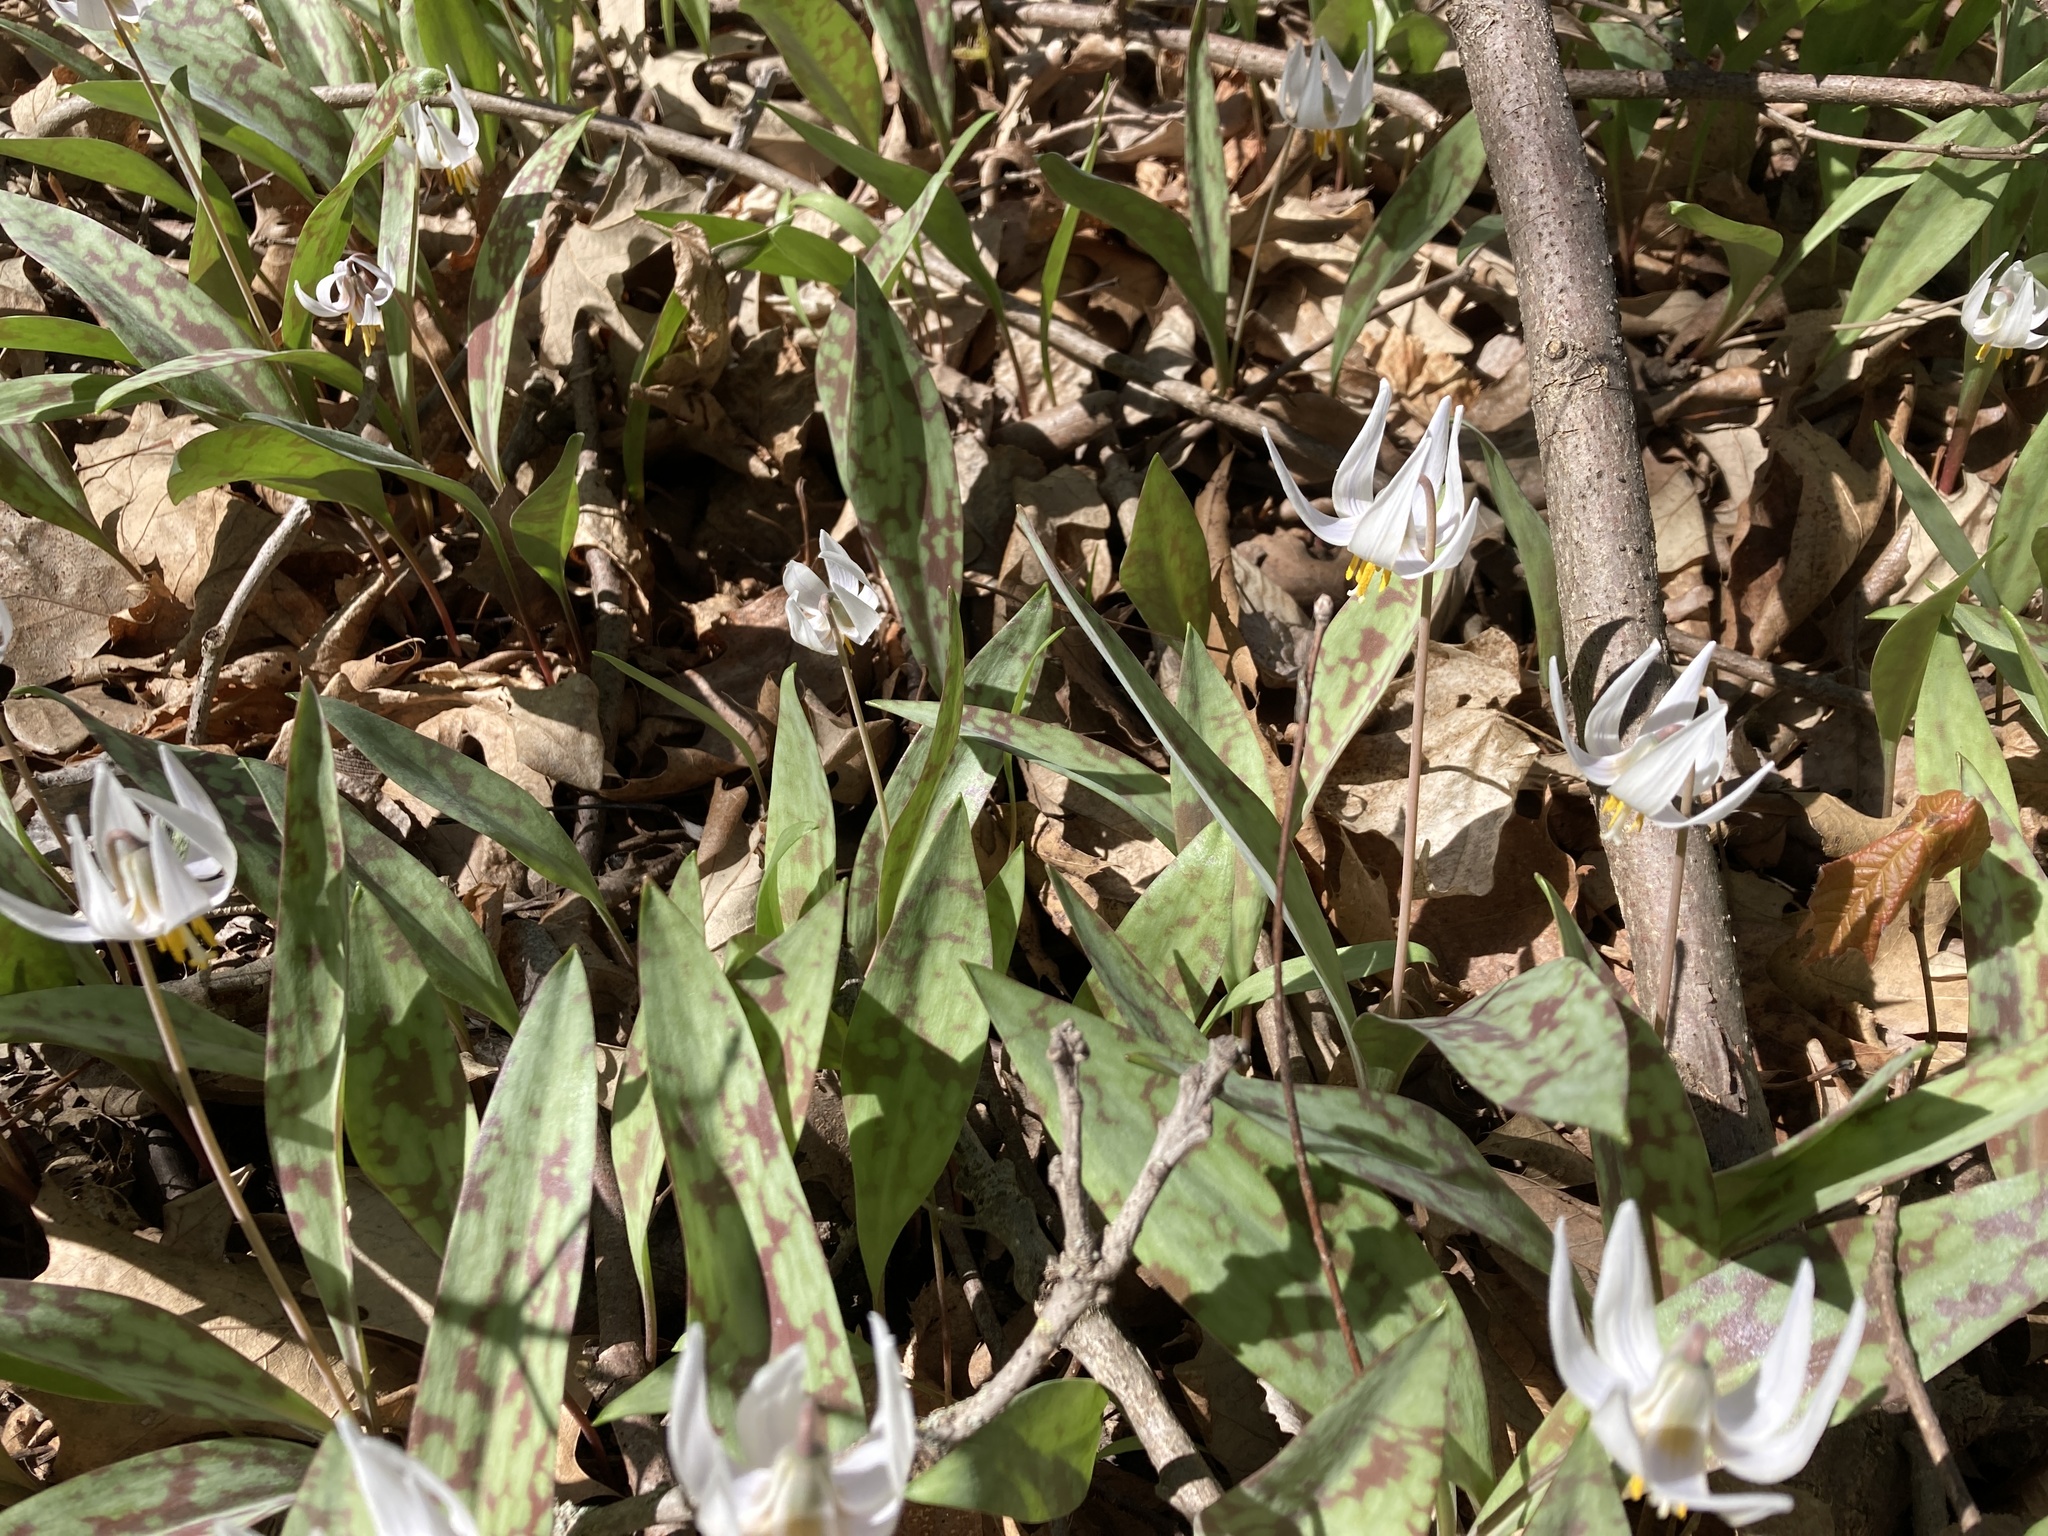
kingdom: Plantae
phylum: Tracheophyta
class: Liliopsida
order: Liliales
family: Liliaceae
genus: Erythronium
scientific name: Erythronium albidum
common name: White trout-lily
